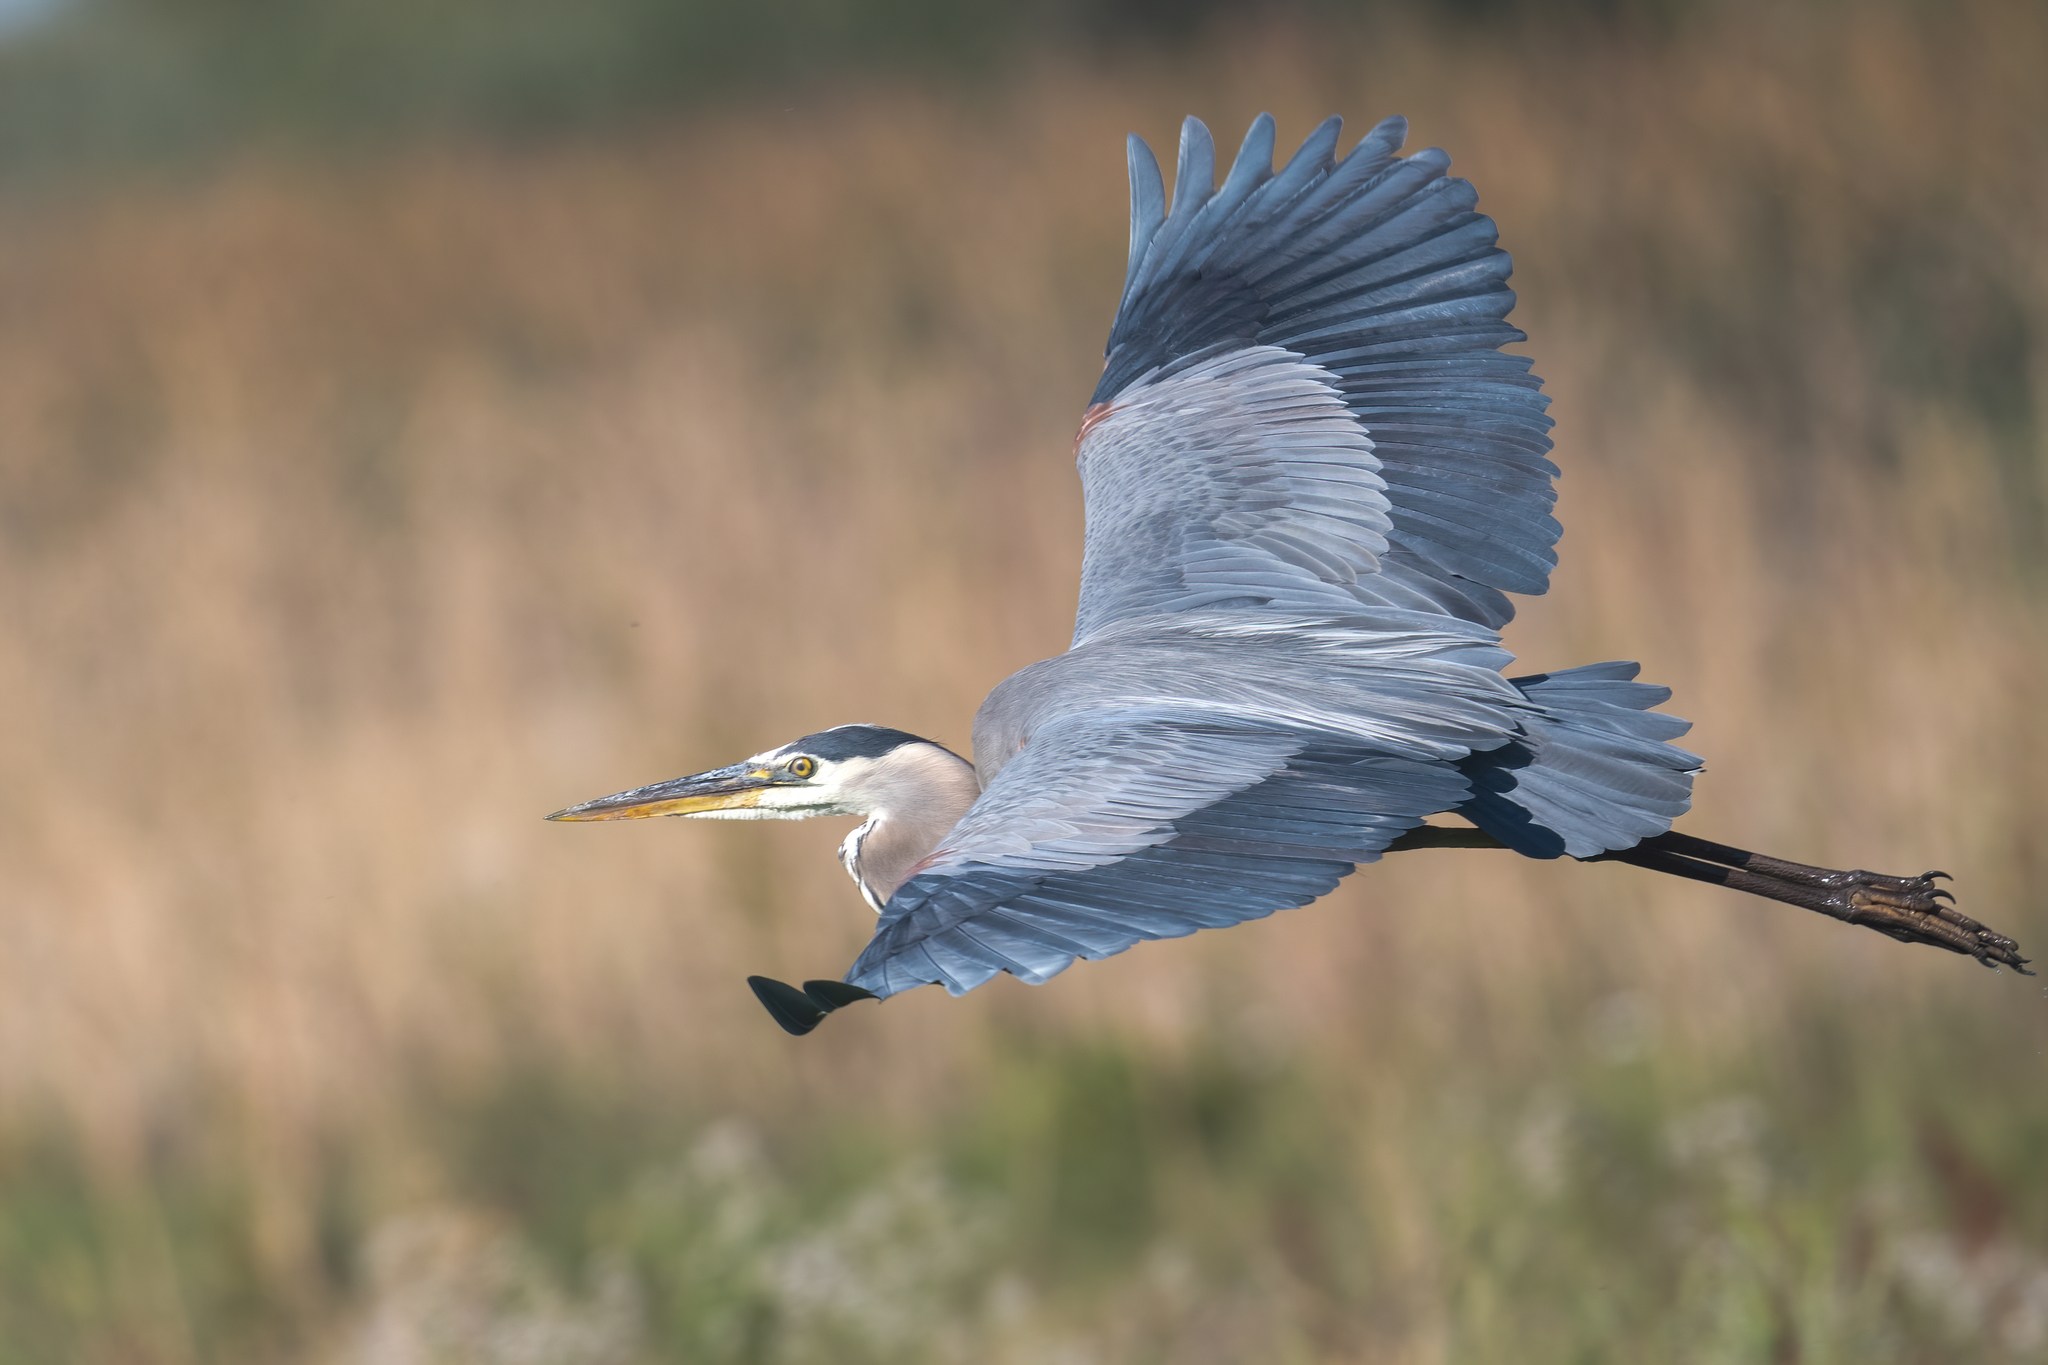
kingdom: Animalia
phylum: Chordata
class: Aves
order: Pelecaniformes
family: Ardeidae
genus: Ardea
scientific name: Ardea herodias
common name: Great blue heron
